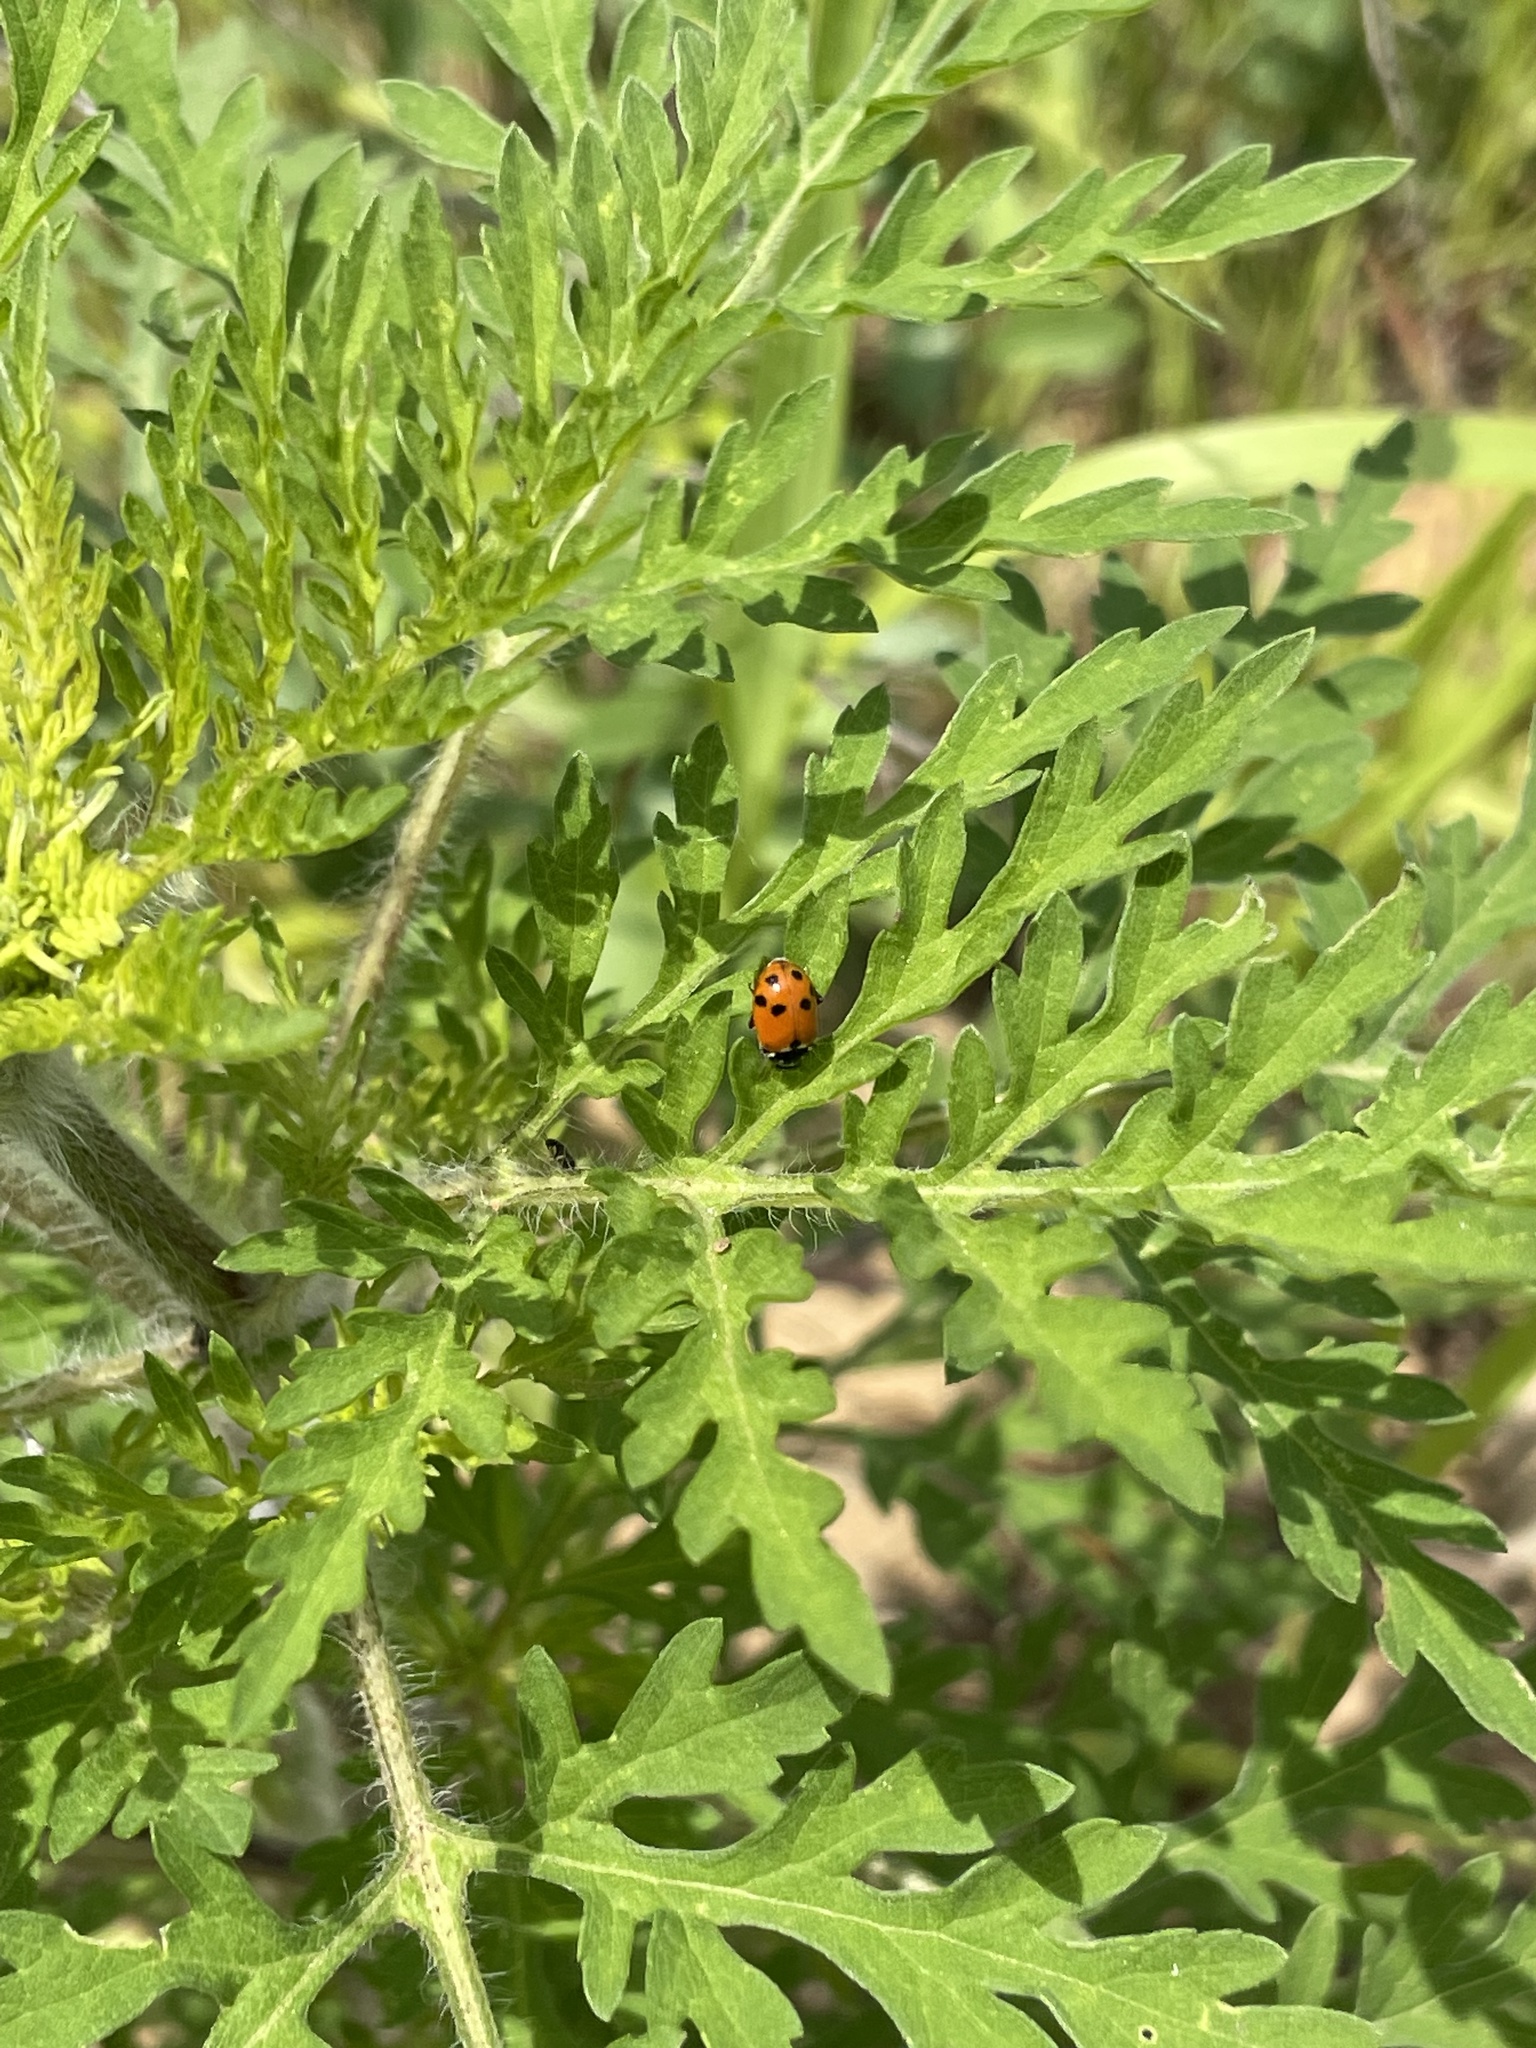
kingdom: Animalia
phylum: Arthropoda
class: Insecta
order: Coleoptera
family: Coccinellidae
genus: Hippodamia
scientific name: Hippodamia variegata
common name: Ladybird beetle
